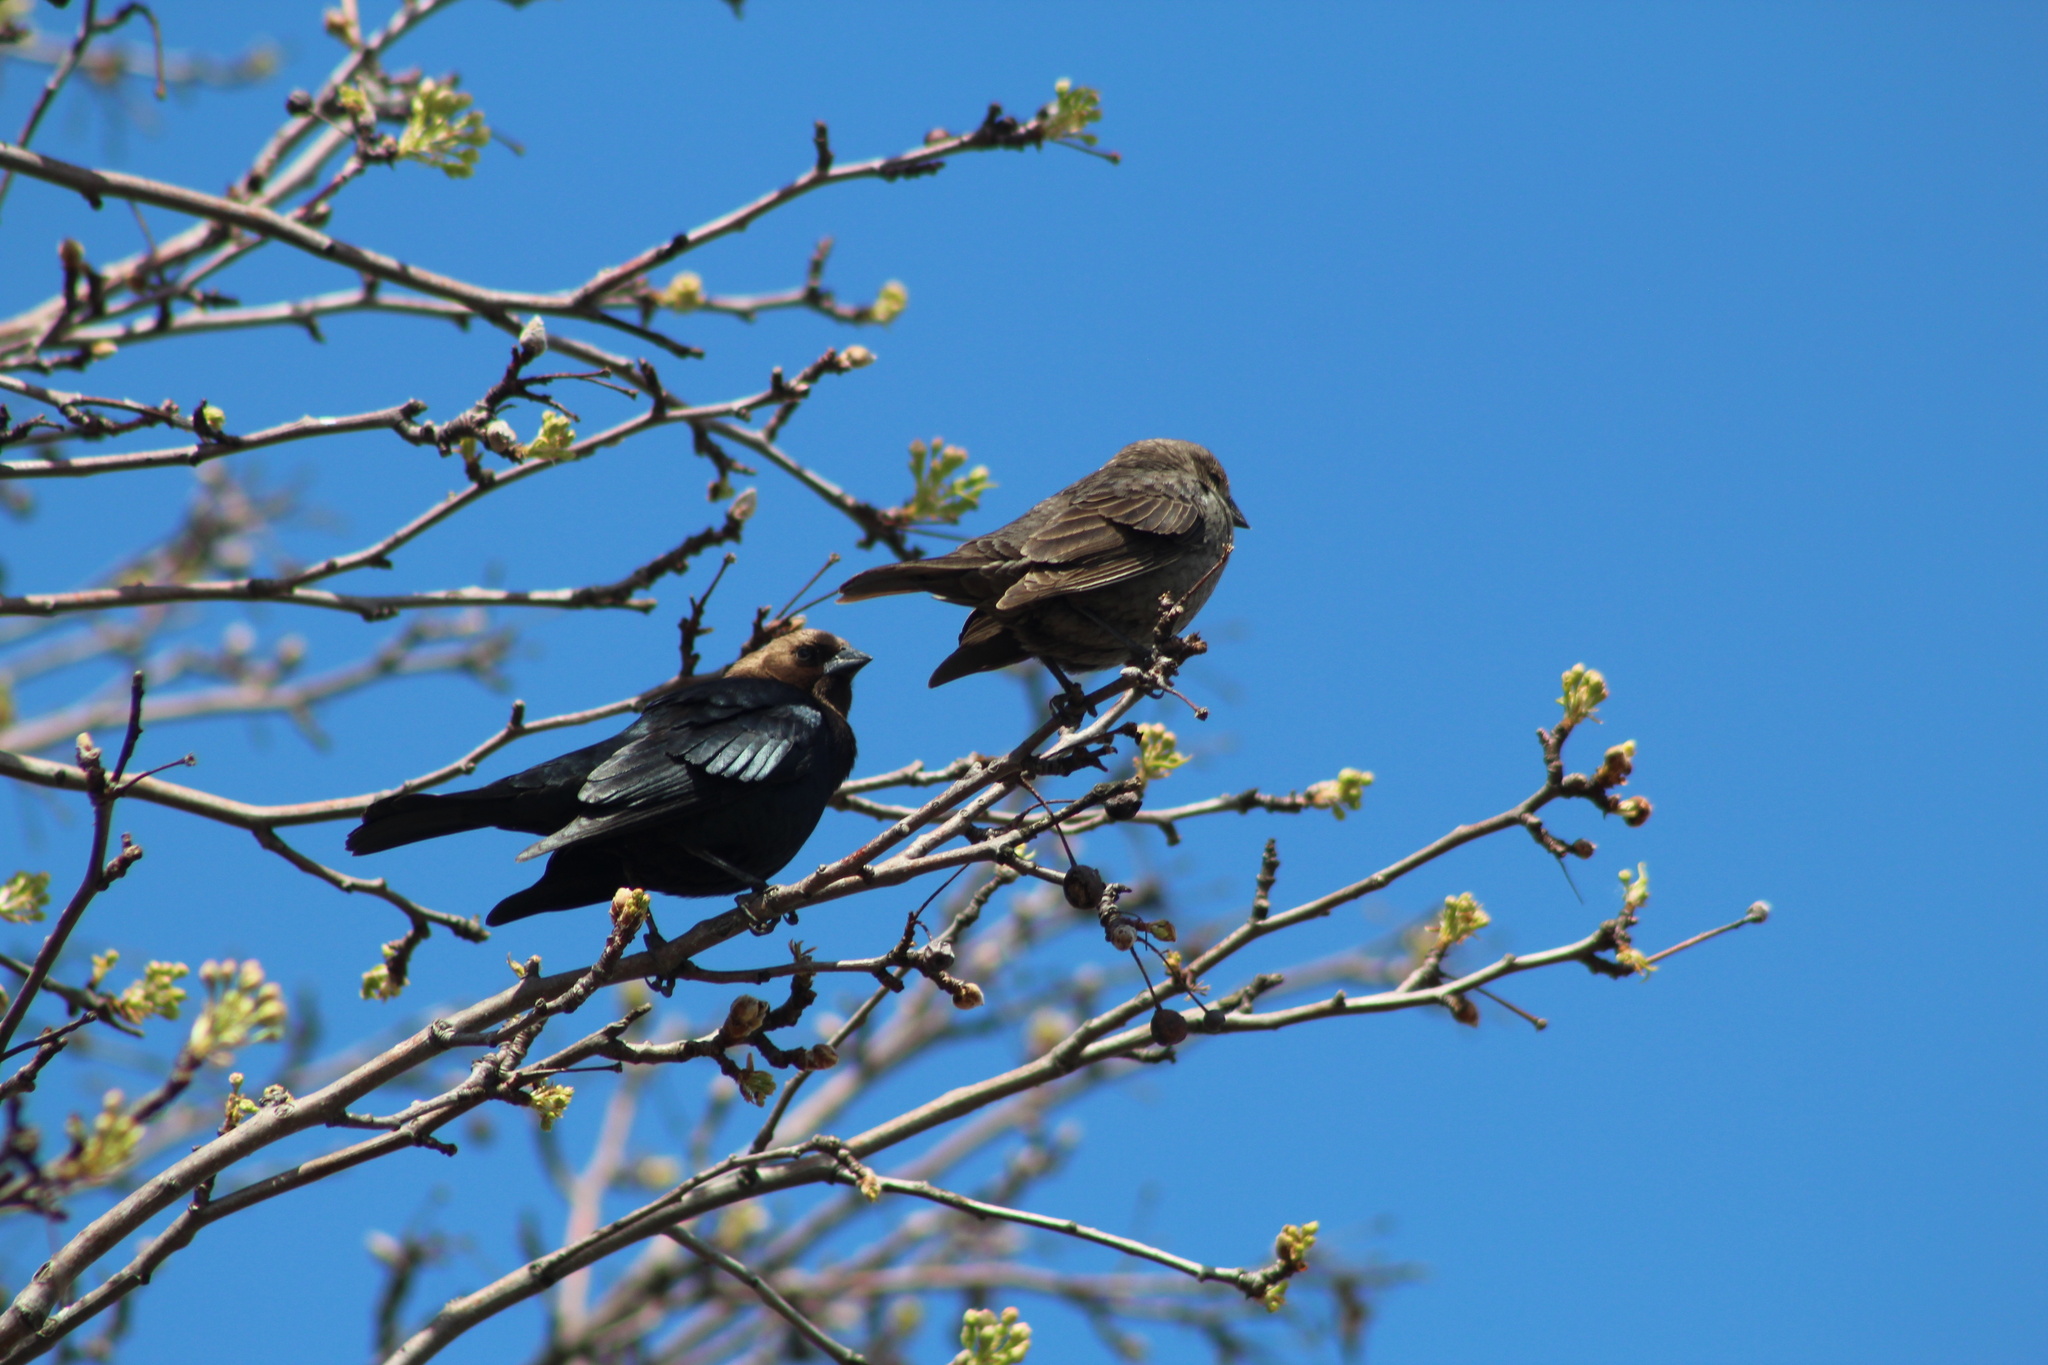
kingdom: Animalia
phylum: Chordata
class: Aves
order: Passeriformes
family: Icteridae
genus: Molothrus
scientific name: Molothrus ater
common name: Brown-headed cowbird
